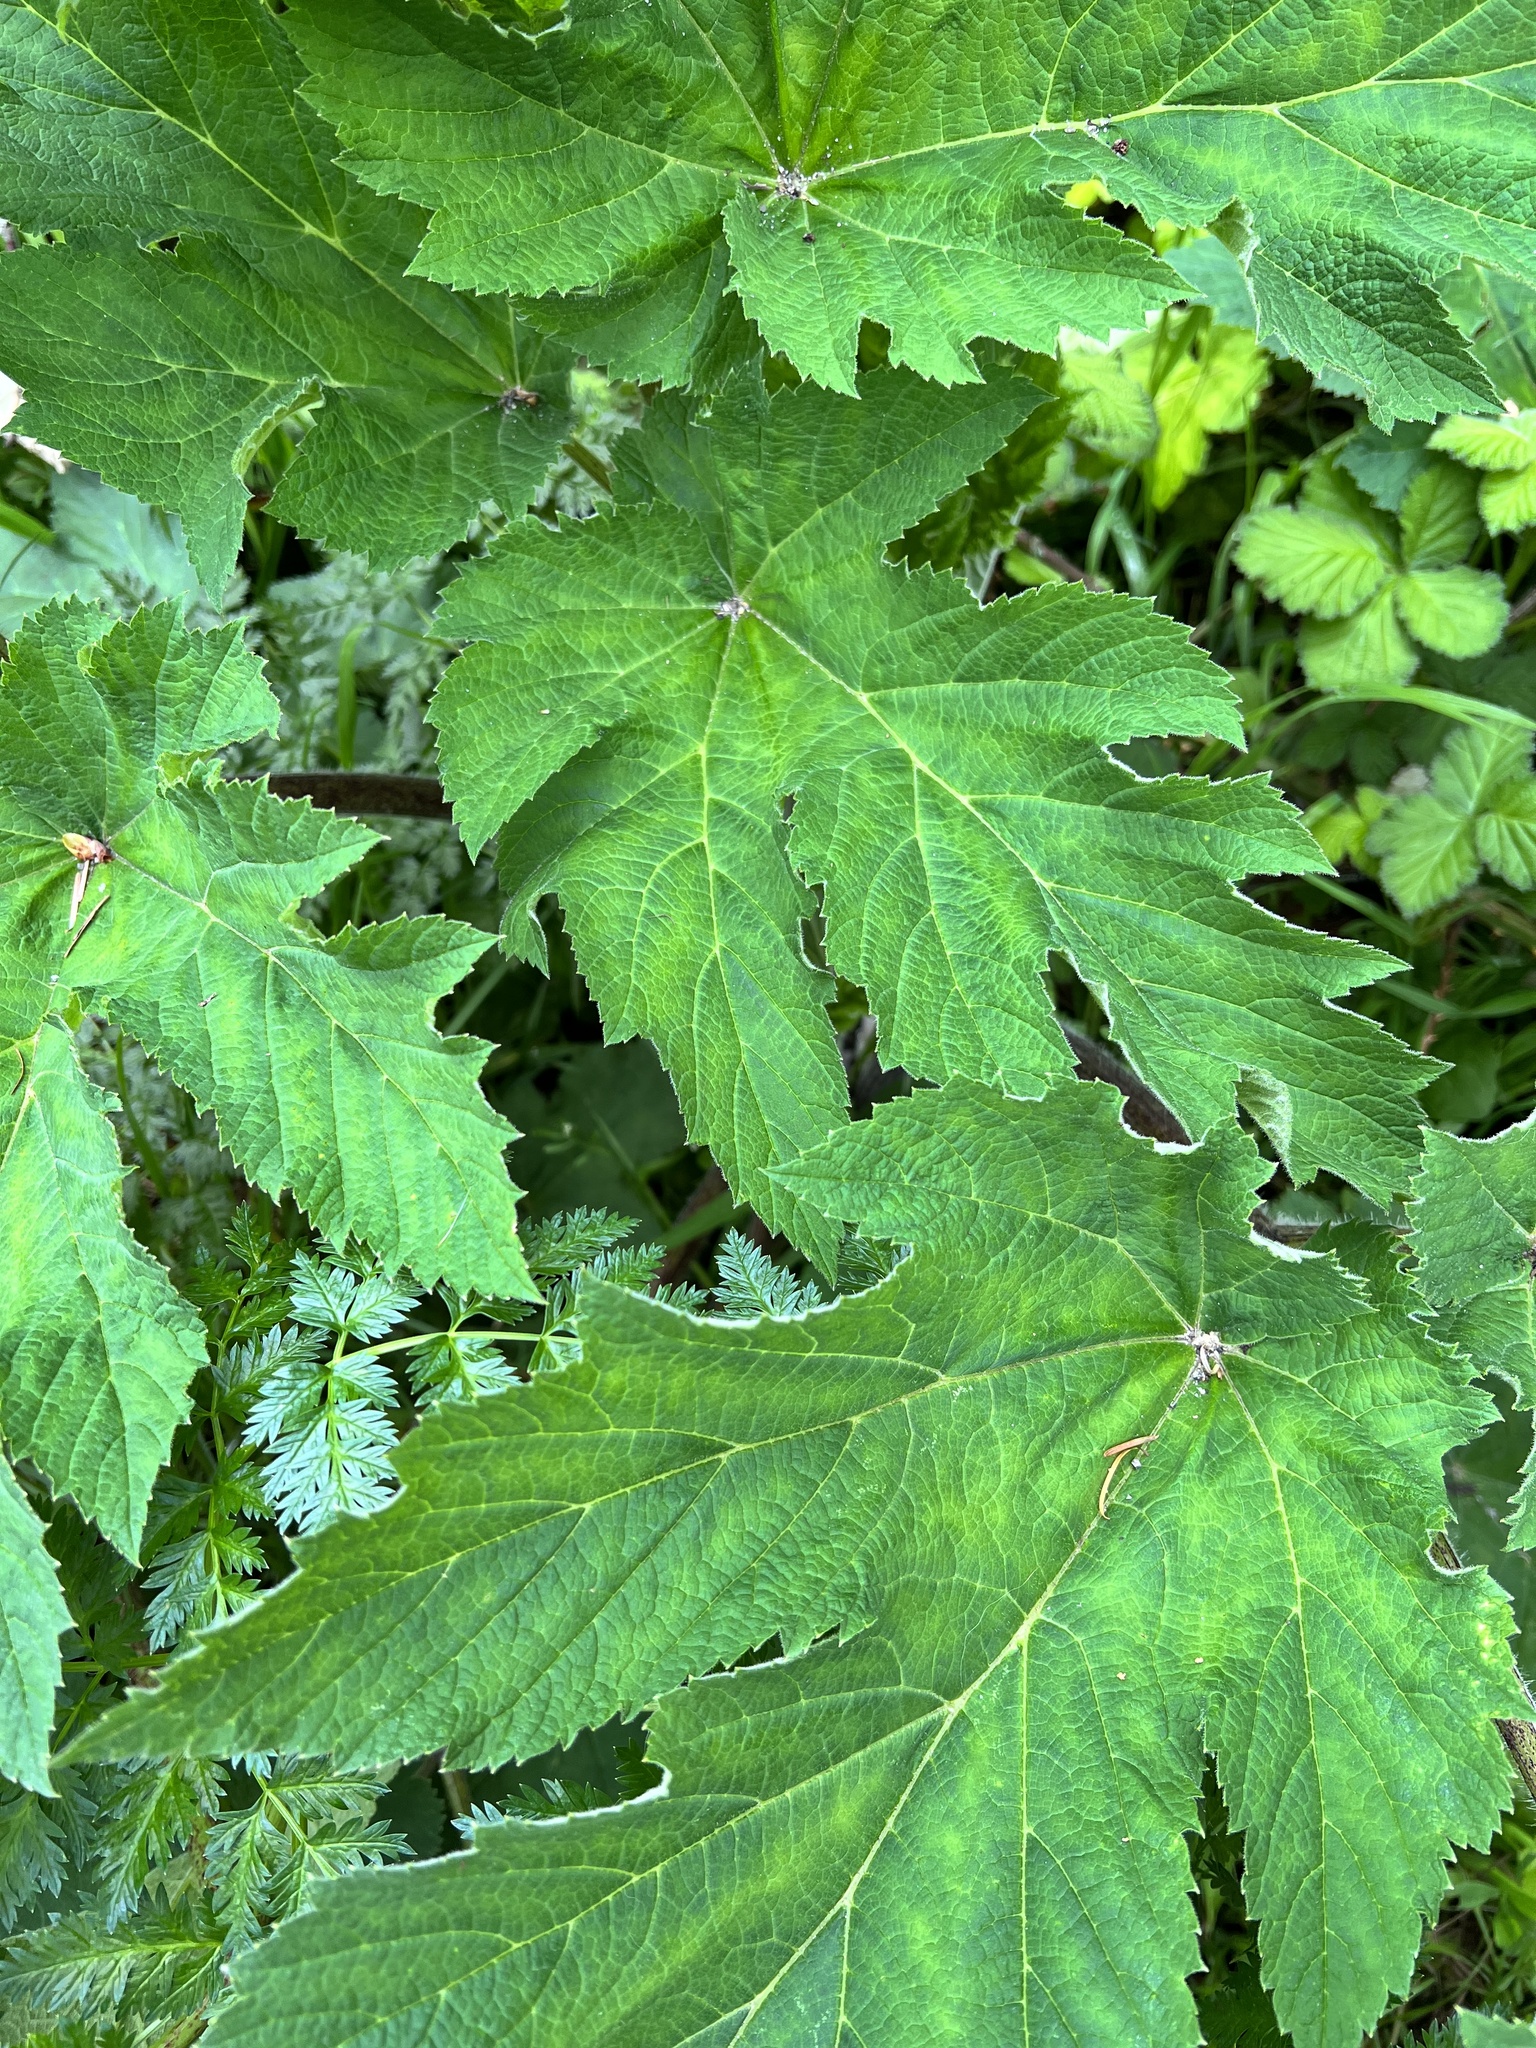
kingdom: Plantae
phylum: Tracheophyta
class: Magnoliopsida
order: Apiales
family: Apiaceae
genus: Heracleum
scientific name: Heracleum maximum
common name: American cow parsnip
